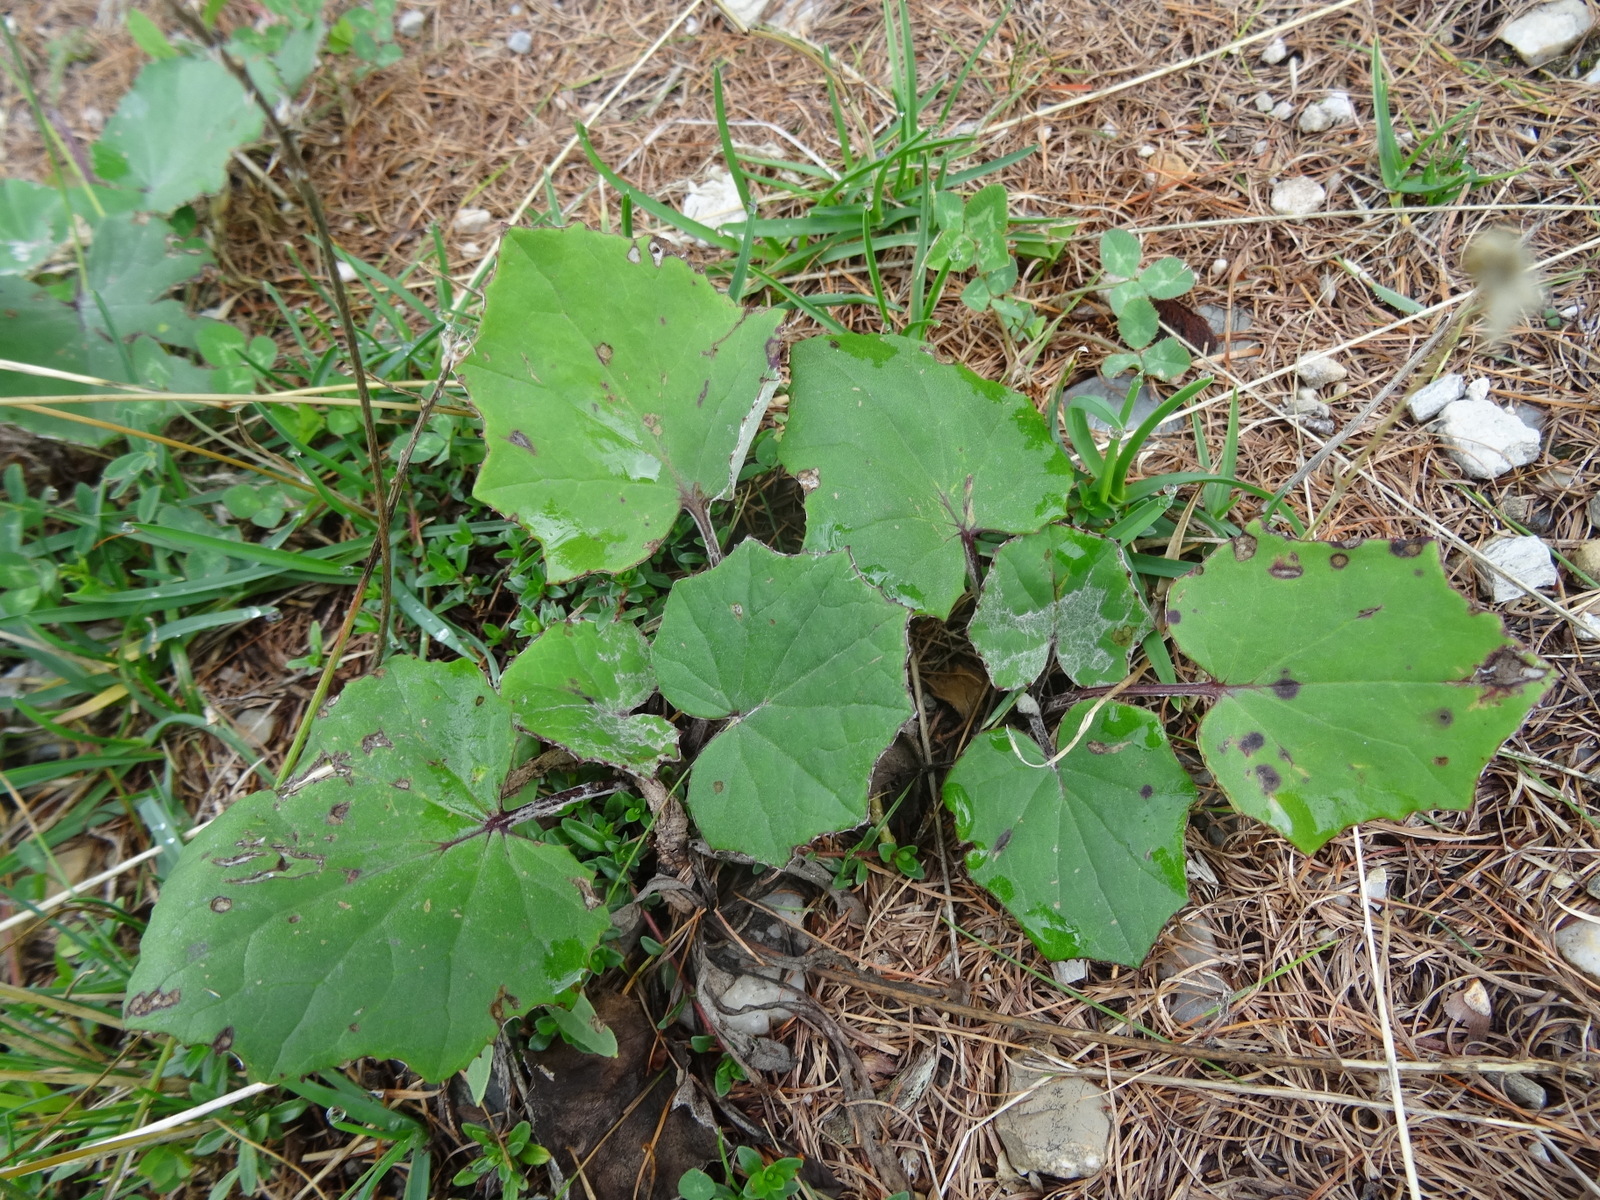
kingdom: Plantae
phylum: Tracheophyta
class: Magnoliopsida
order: Asterales
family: Asteraceae
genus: Tussilago
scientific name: Tussilago farfara
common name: Coltsfoot
